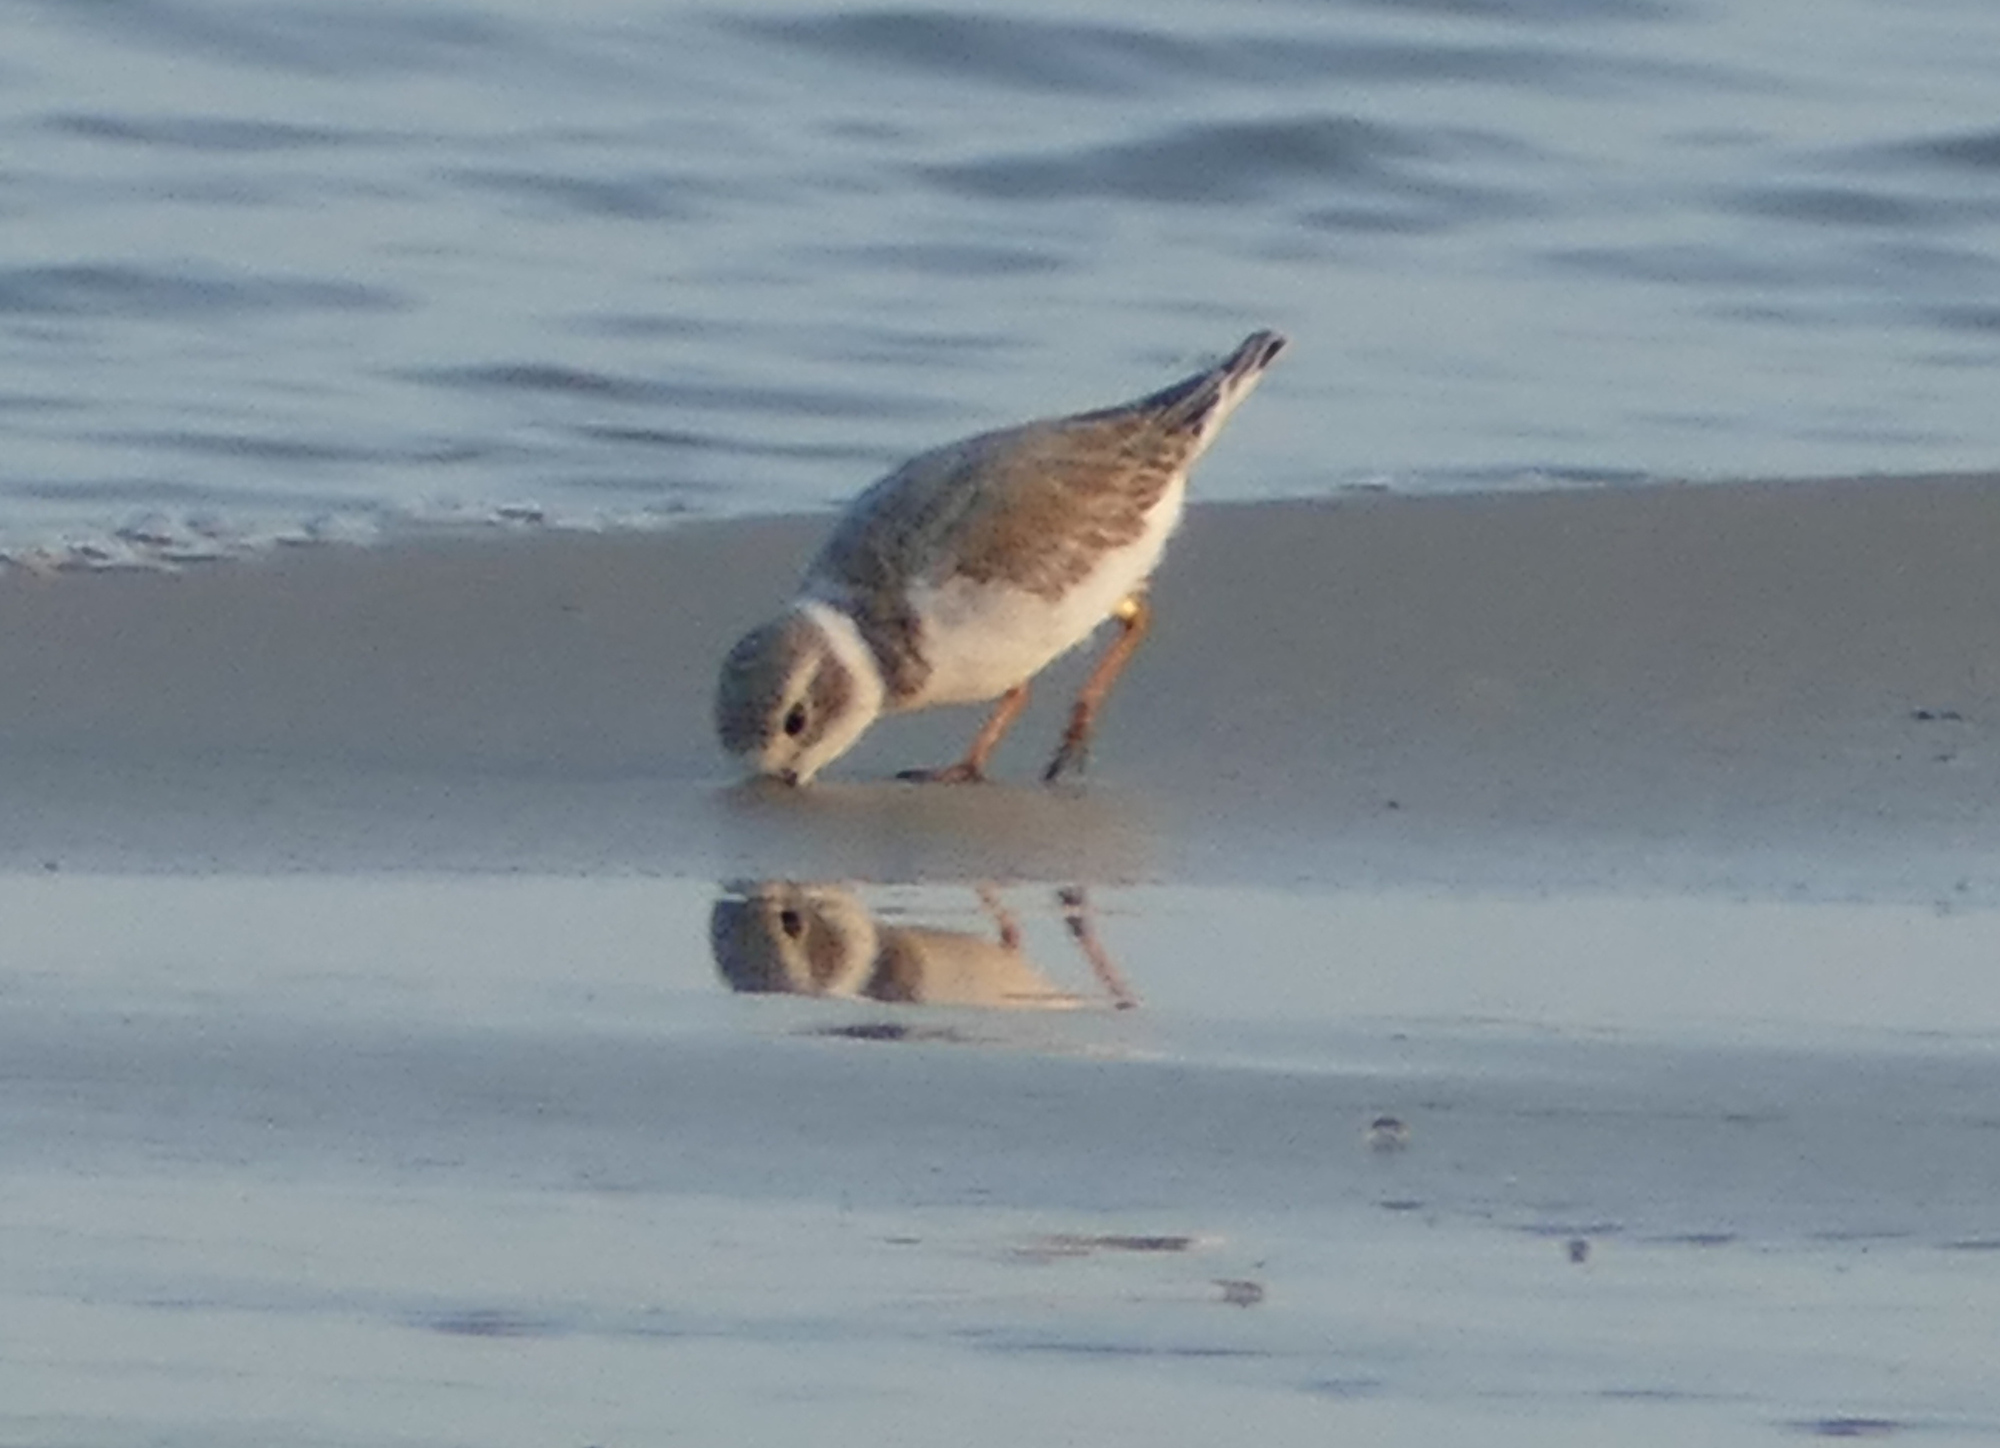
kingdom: Animalia
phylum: Chordata
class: Aves
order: Charadriiformes
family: Charadriidae
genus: Charadrius
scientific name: Charadrius melodus
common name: Piping plover
